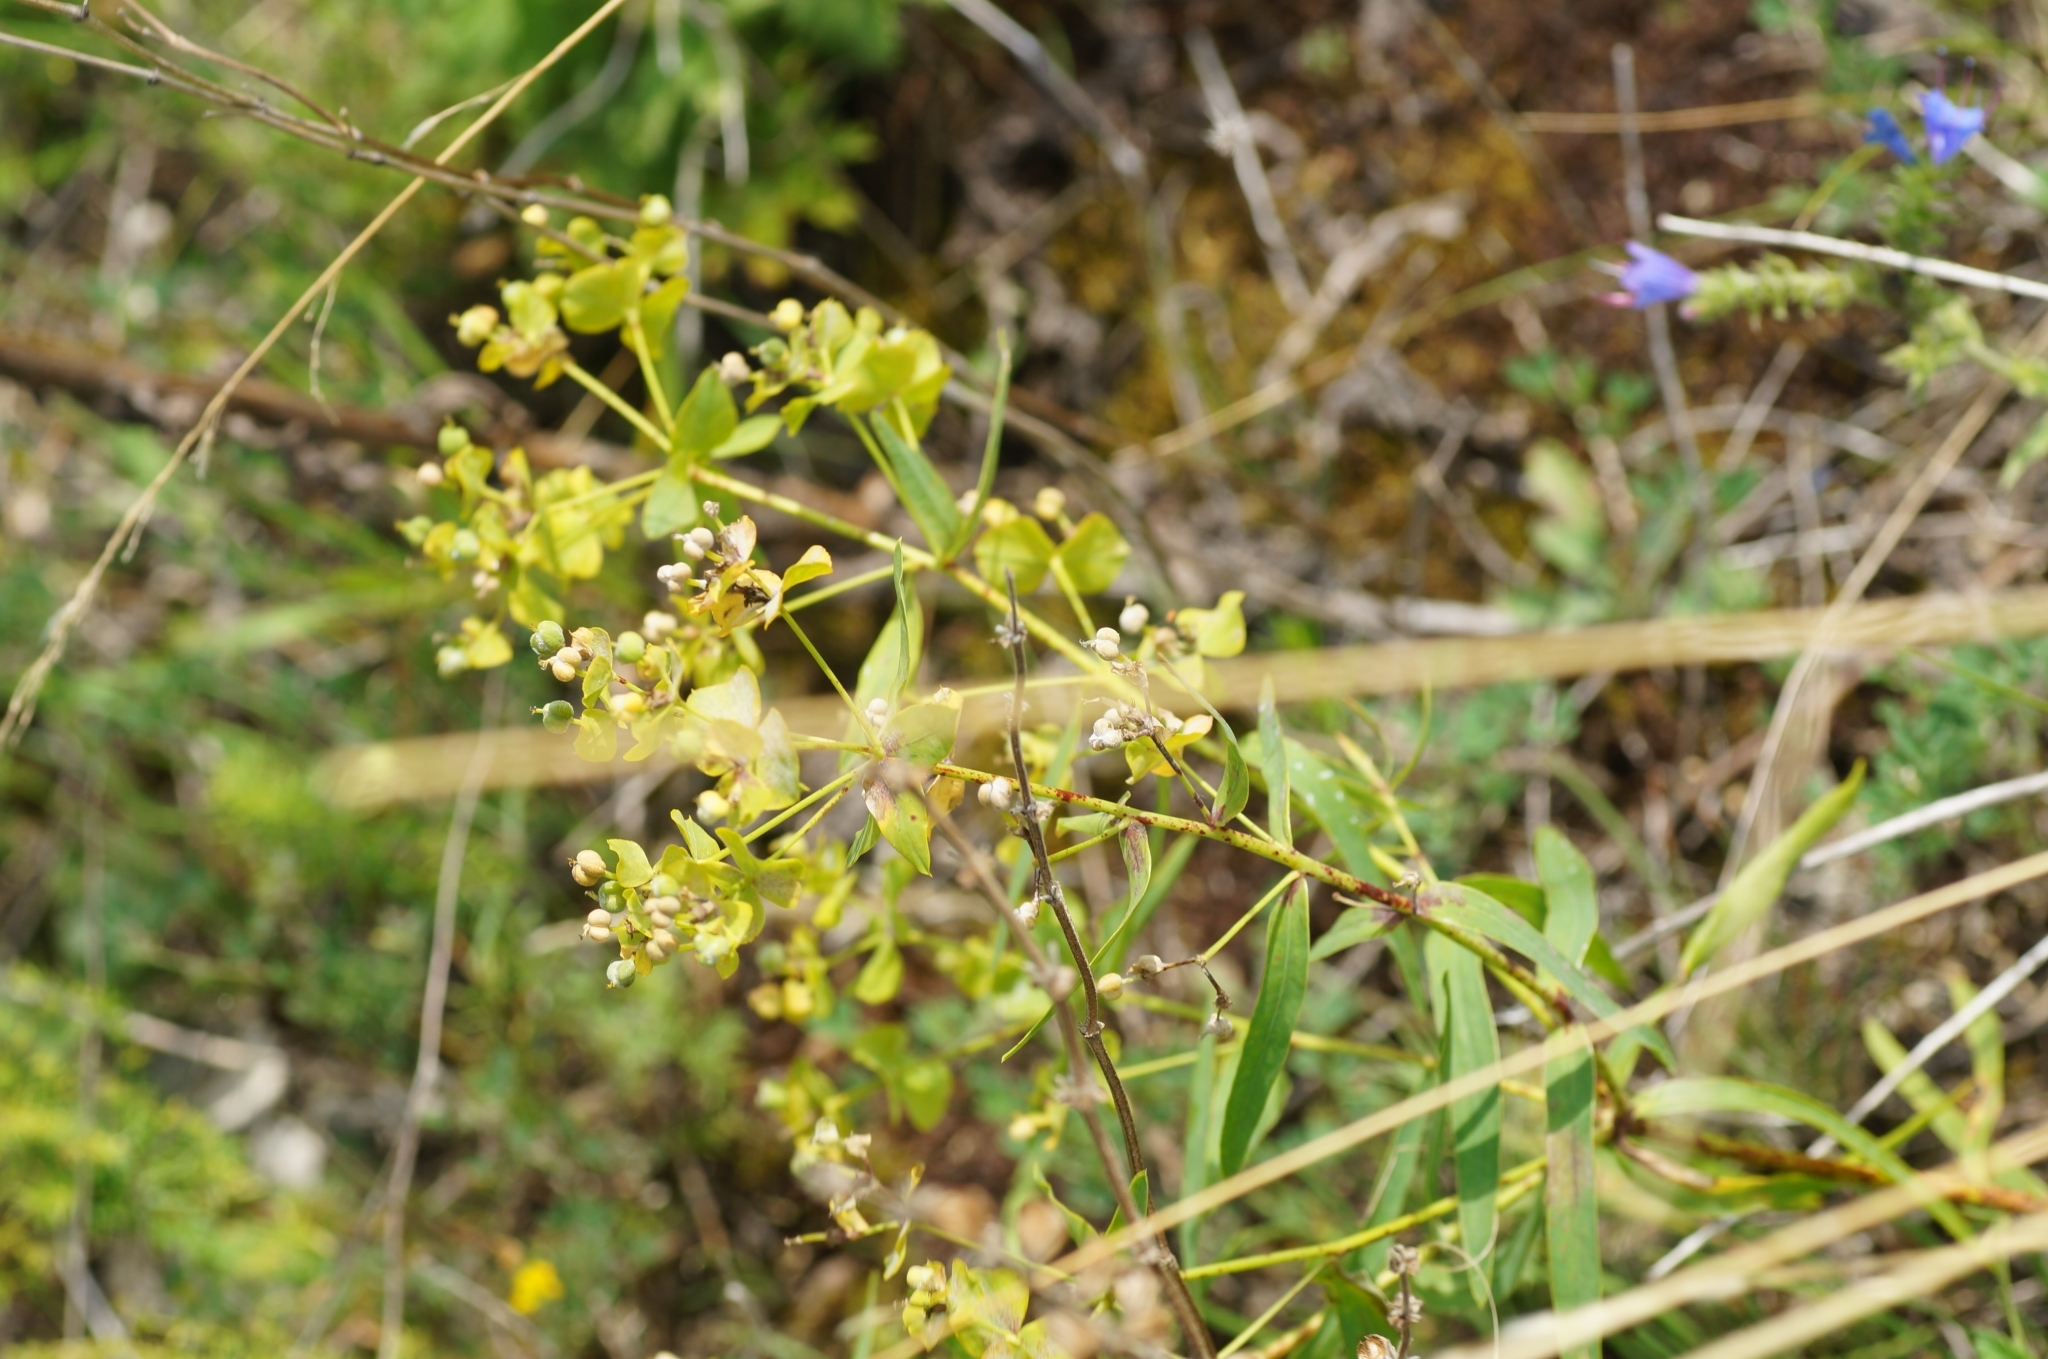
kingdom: Plantae
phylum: Tracheophyta
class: Magnoliopsida
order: Malpighiales
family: Euphorbiaceae
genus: Euphorbia
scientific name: Euphorbia virgata
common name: Leafy spurge
